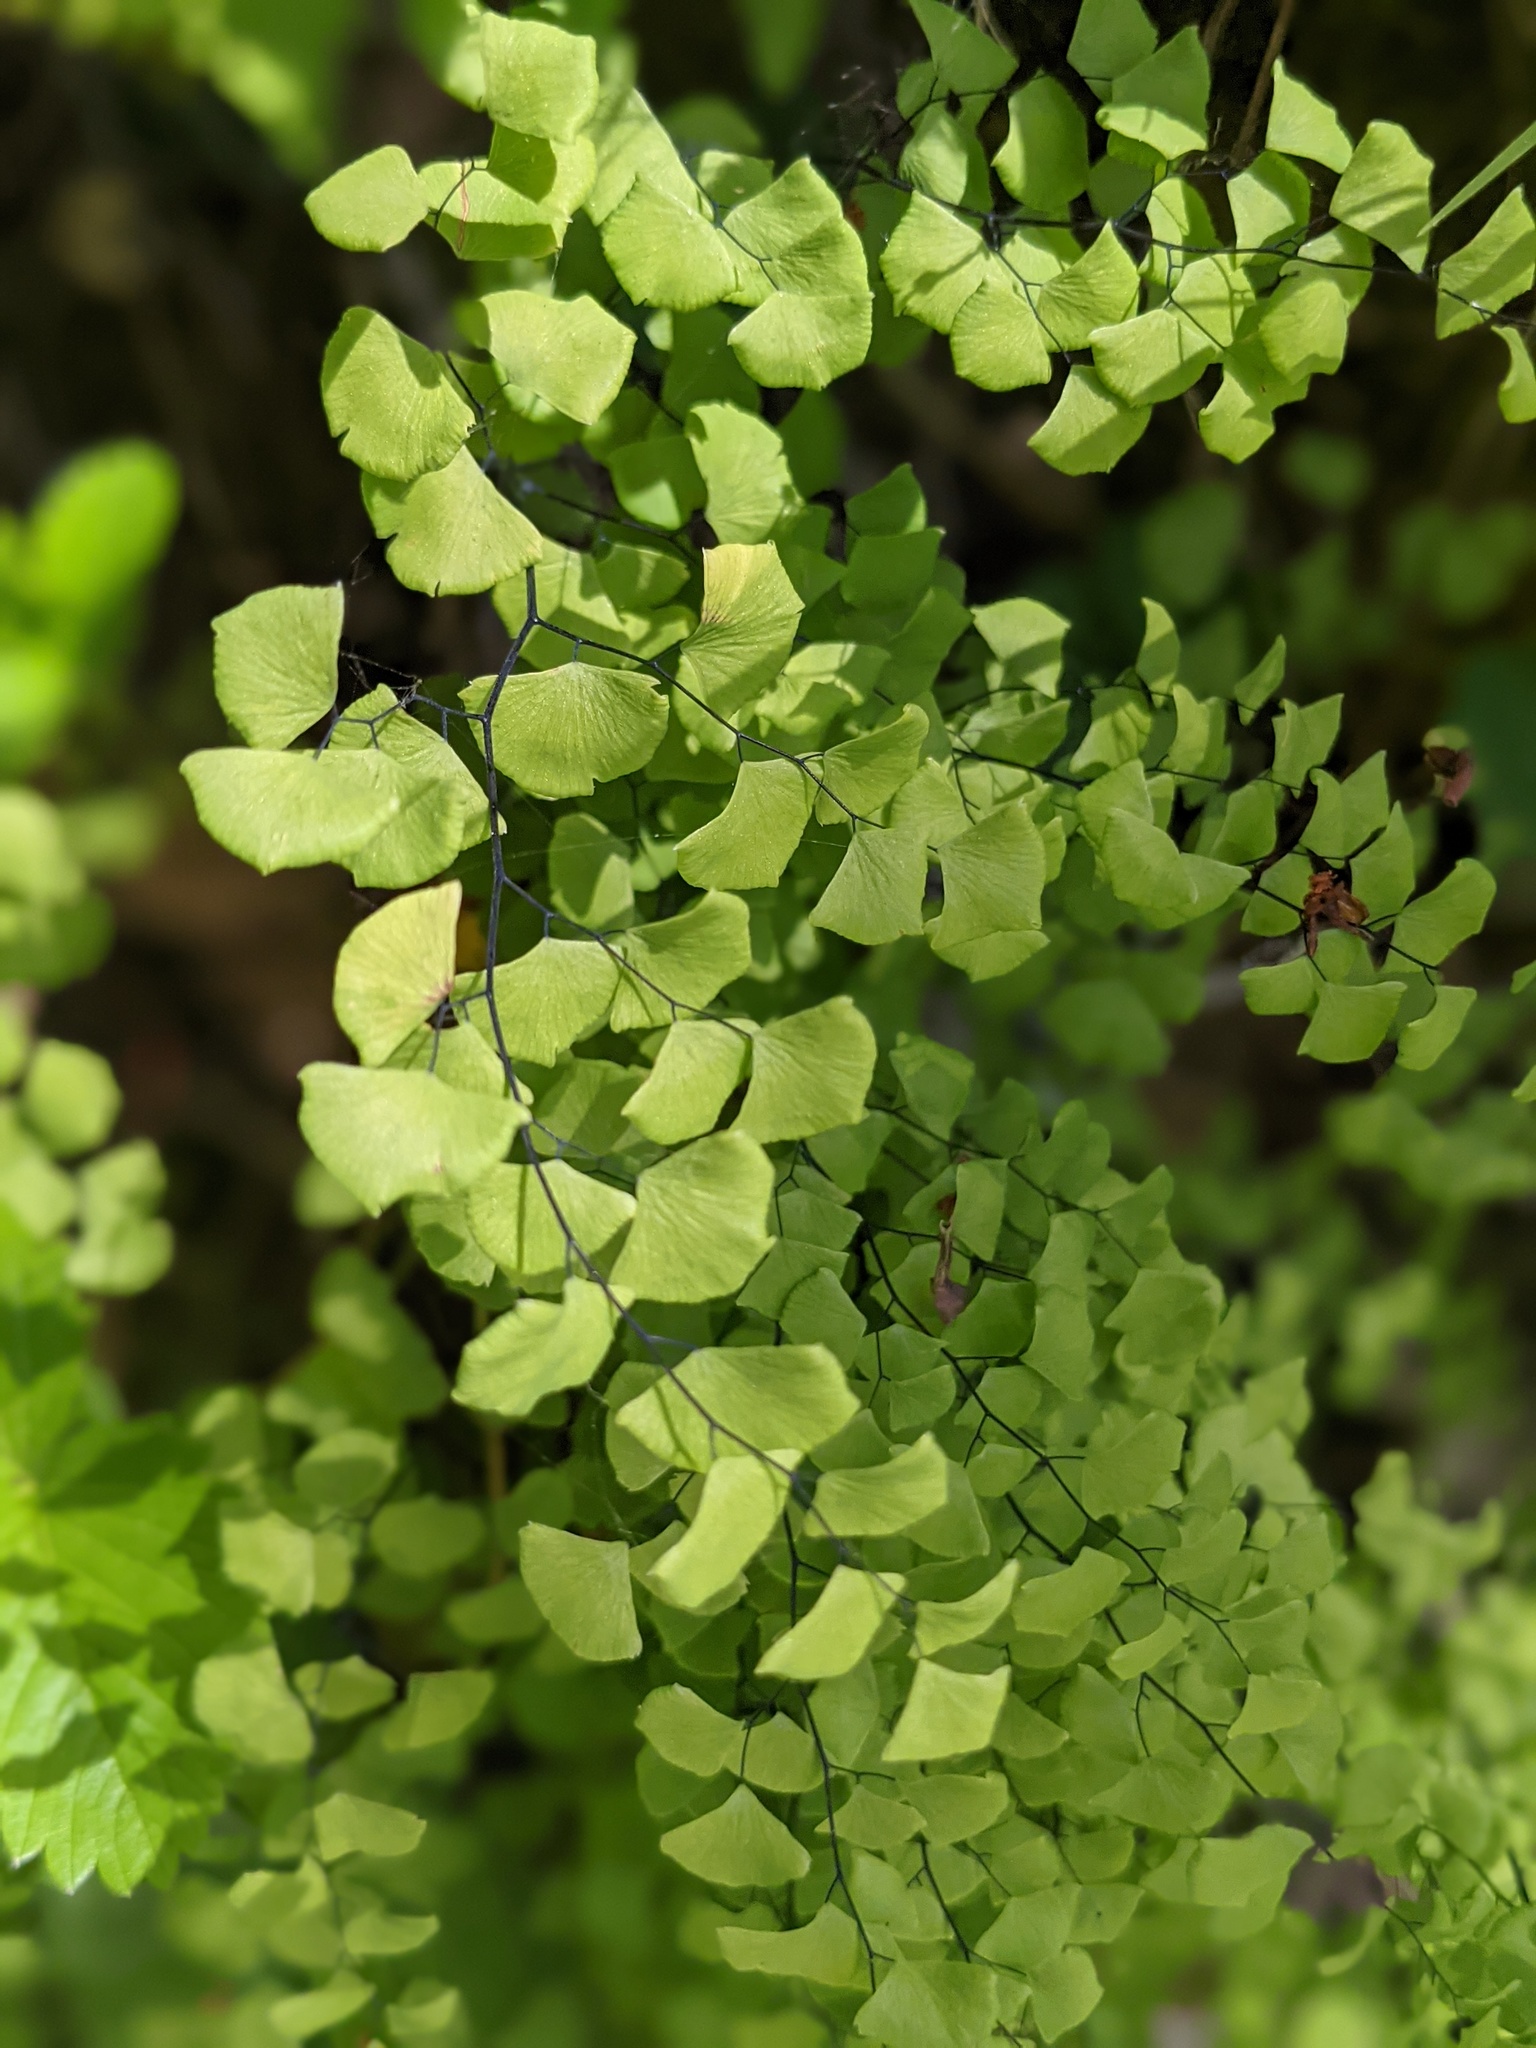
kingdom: Plantae
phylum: Tracheophyta
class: Polypodiopsida
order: Polypodiales
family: Pteridaceae
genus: Adiantum
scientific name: Adiantum jordanii
